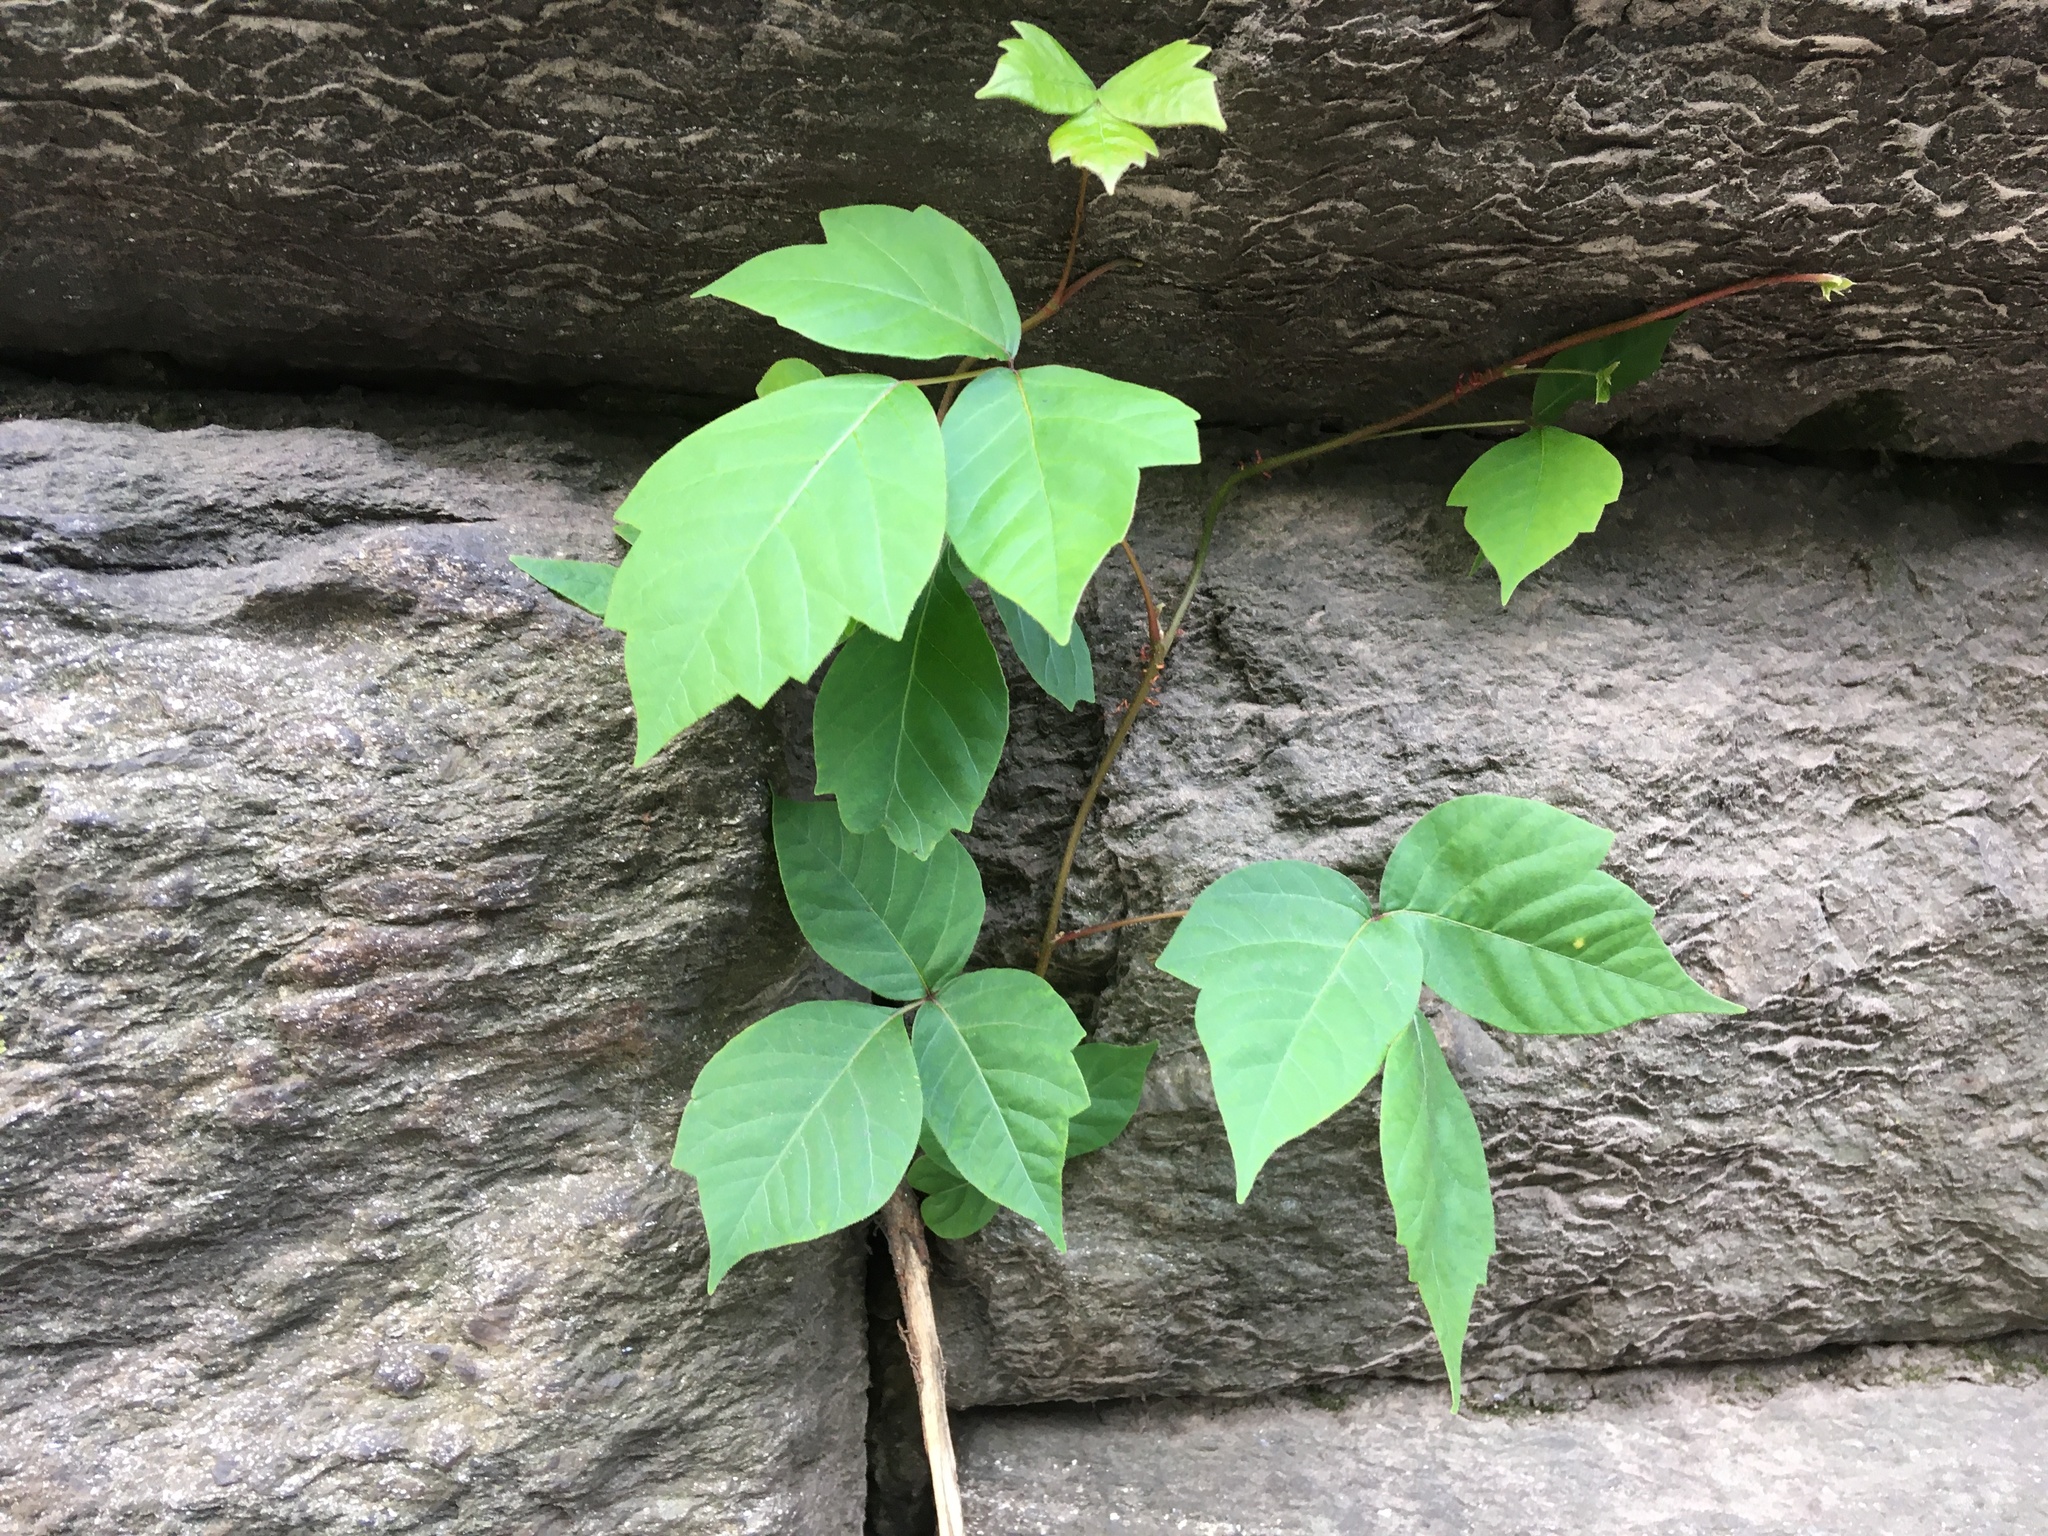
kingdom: Plantae
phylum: Tracheophyta
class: Magnoliopsida
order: Sapindales
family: Anacardiaceae
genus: Toxicodendron
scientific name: Toxicodendron radicans
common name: Poison ivy
